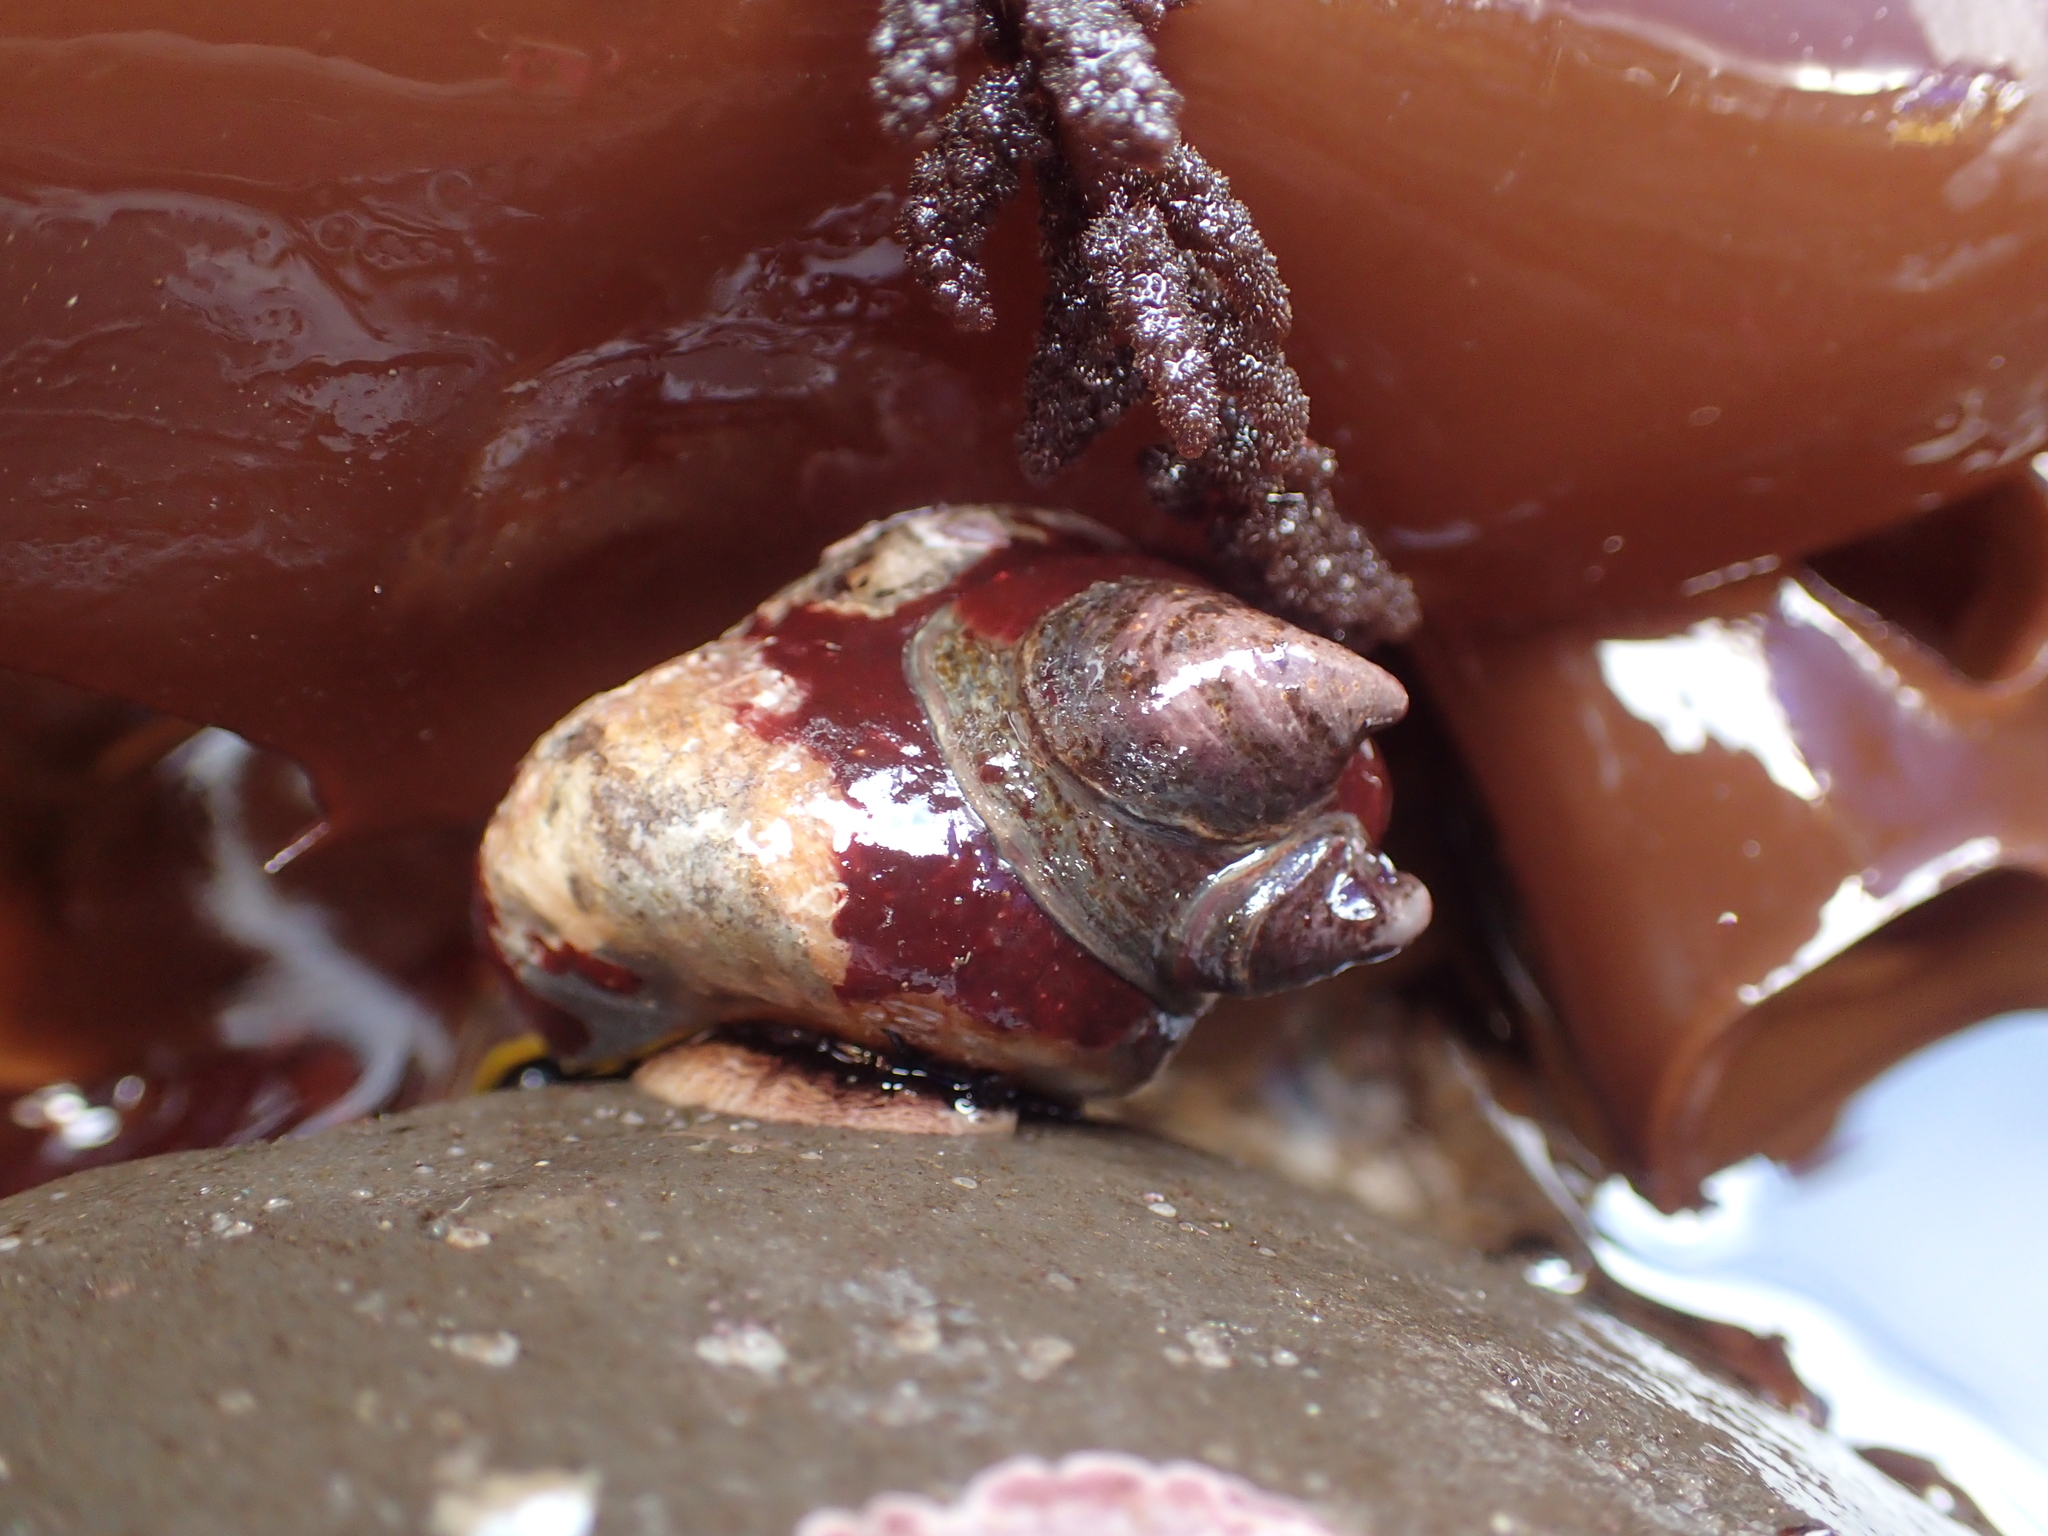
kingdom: Animalia
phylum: Mollusca
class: Gastropoda
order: Trochida
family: Tegulidae
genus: Tegula
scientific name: Tegula brunnea
